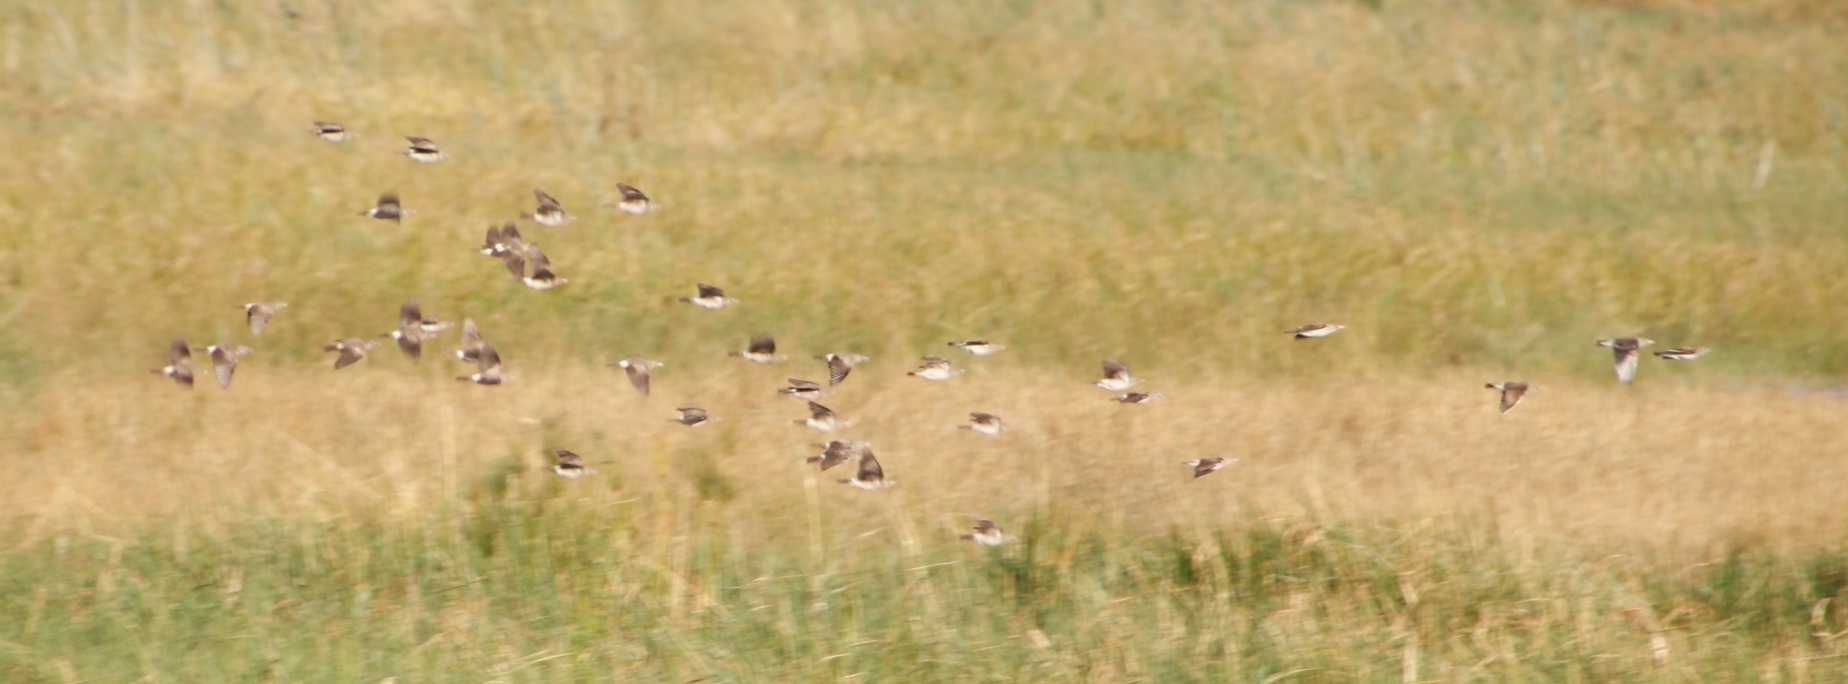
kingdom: Animalia
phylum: Chordata
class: Aves
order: Passeriformes
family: Sturnidae
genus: Creatophora
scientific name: Creatophora cinerea
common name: Wattled starling
